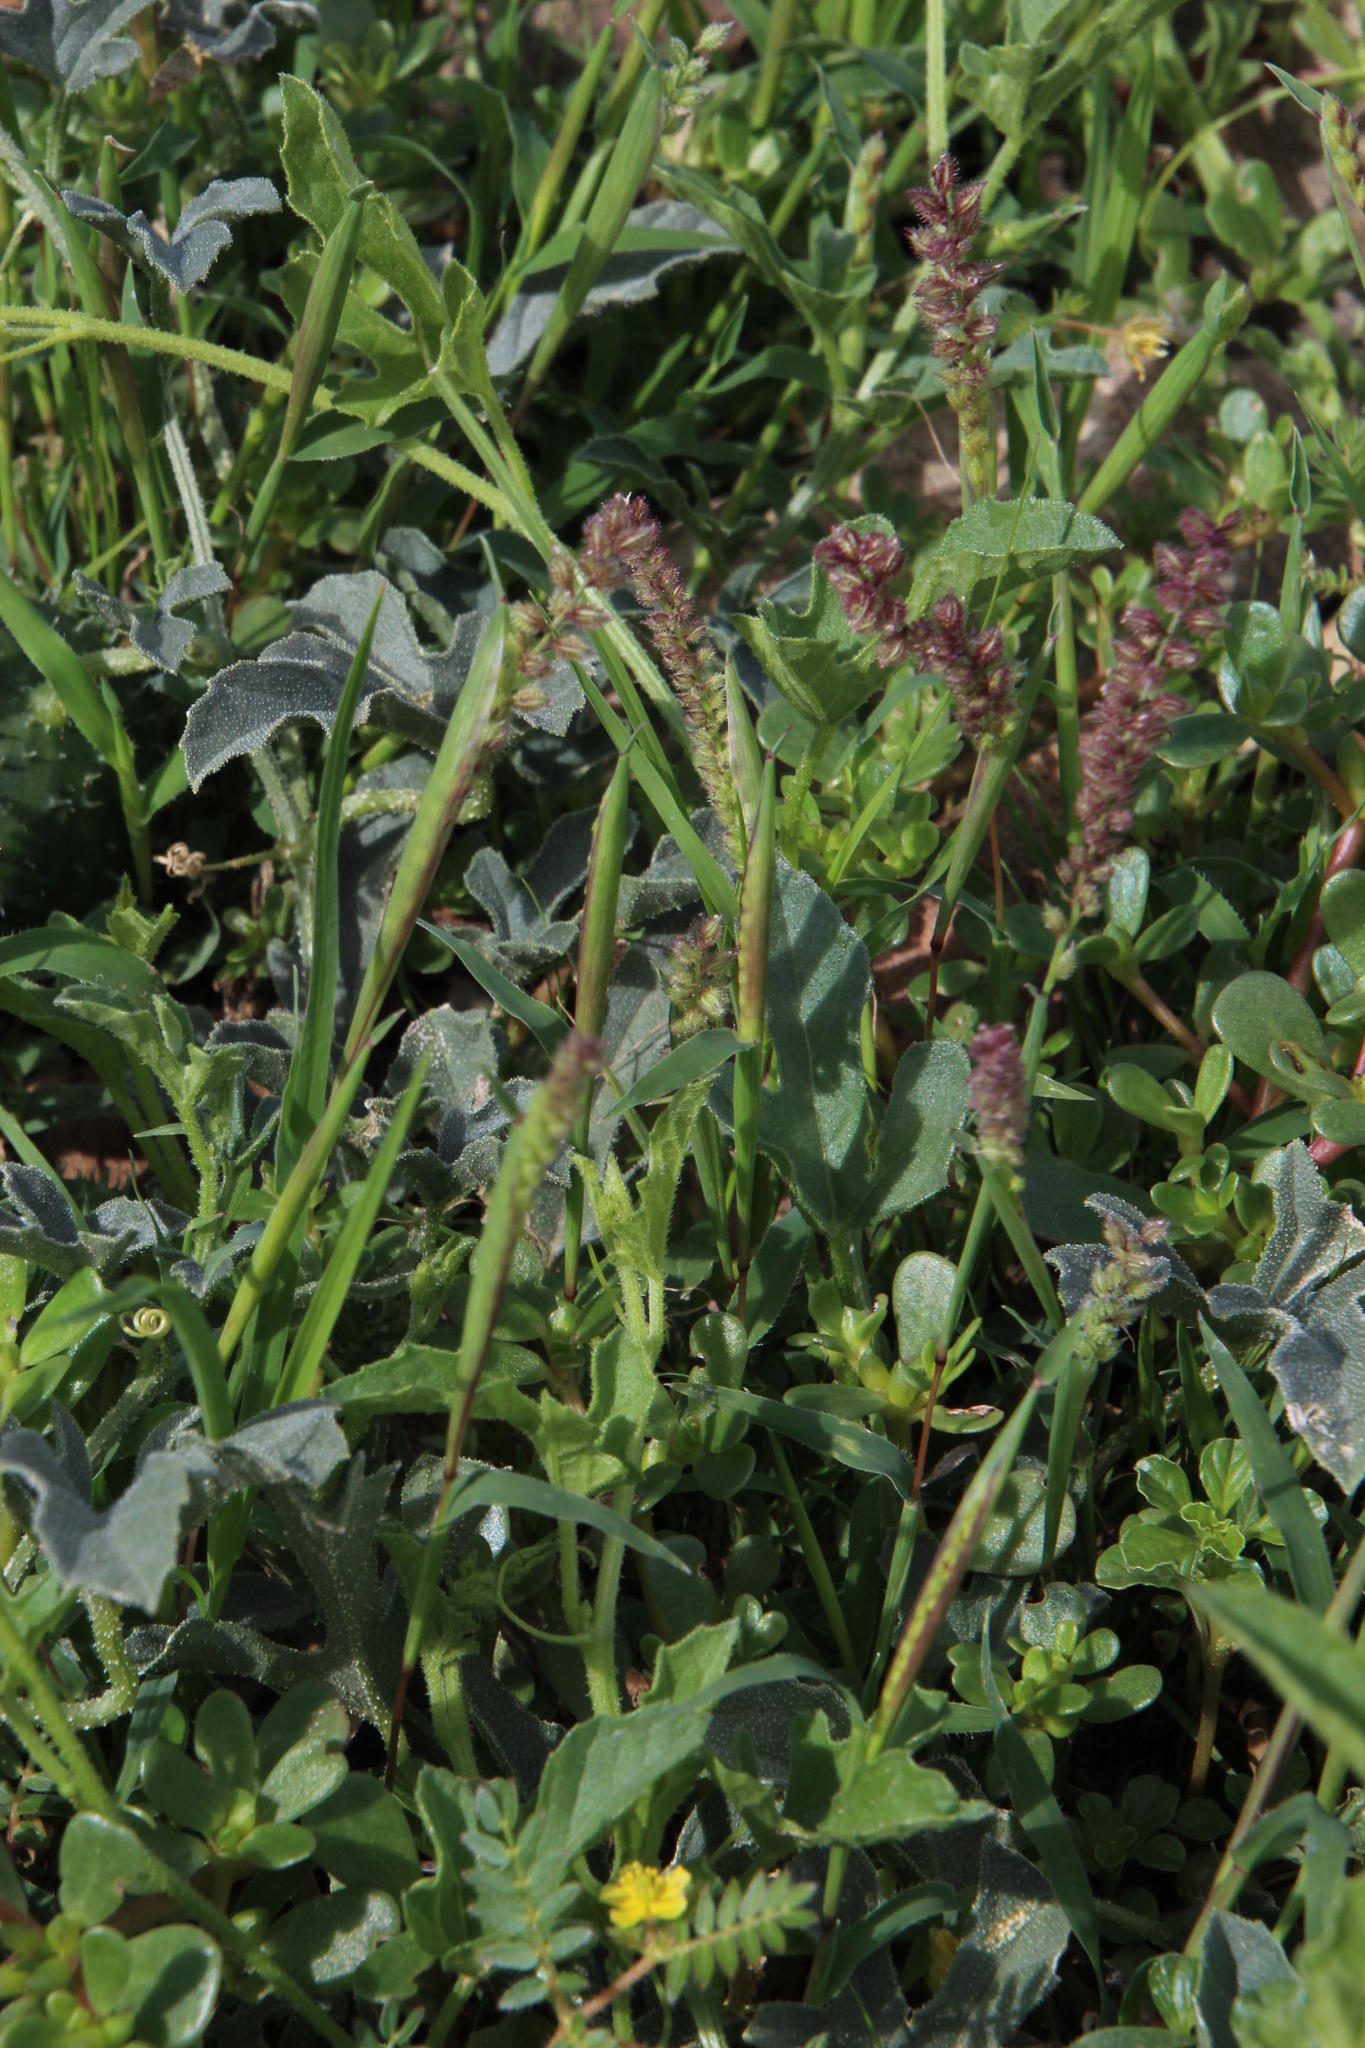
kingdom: Plantae
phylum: Tracheophyta
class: Liliopsida
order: Poales
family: Poaceae
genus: Tragus
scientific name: Tragus berteronianus
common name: African bur-grass
